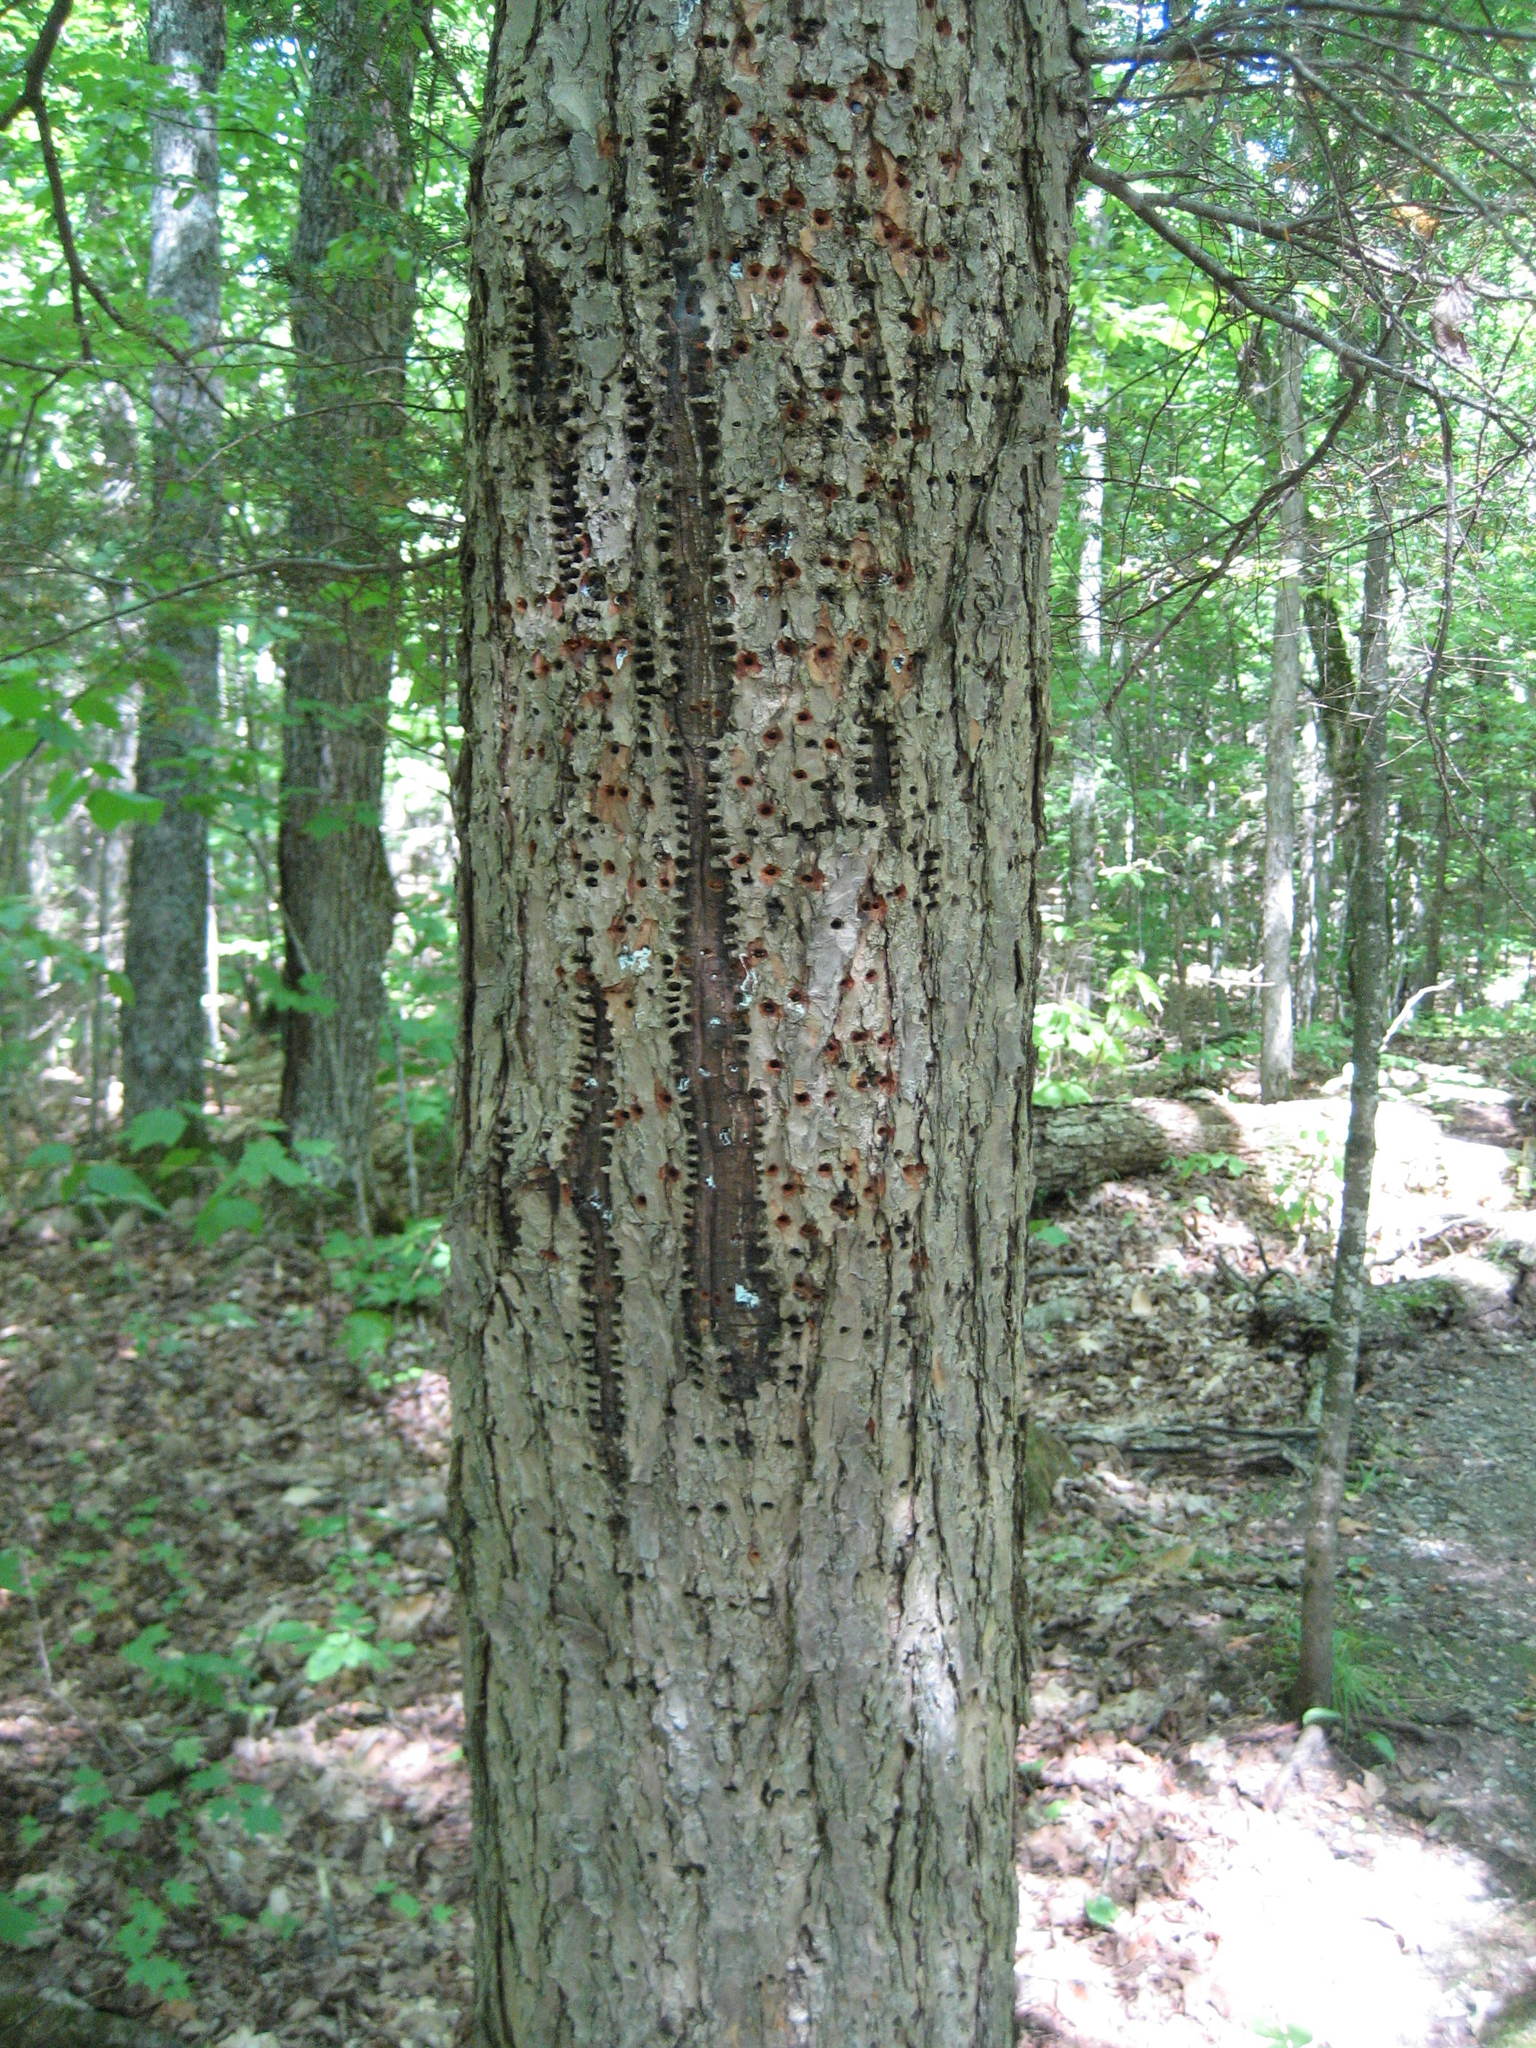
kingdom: Plantae
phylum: Tracheophyta
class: Pinopsida
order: Pinales
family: Pinaceae
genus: Tsuga
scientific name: Tsuga canadensis
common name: Eastern hemlock
